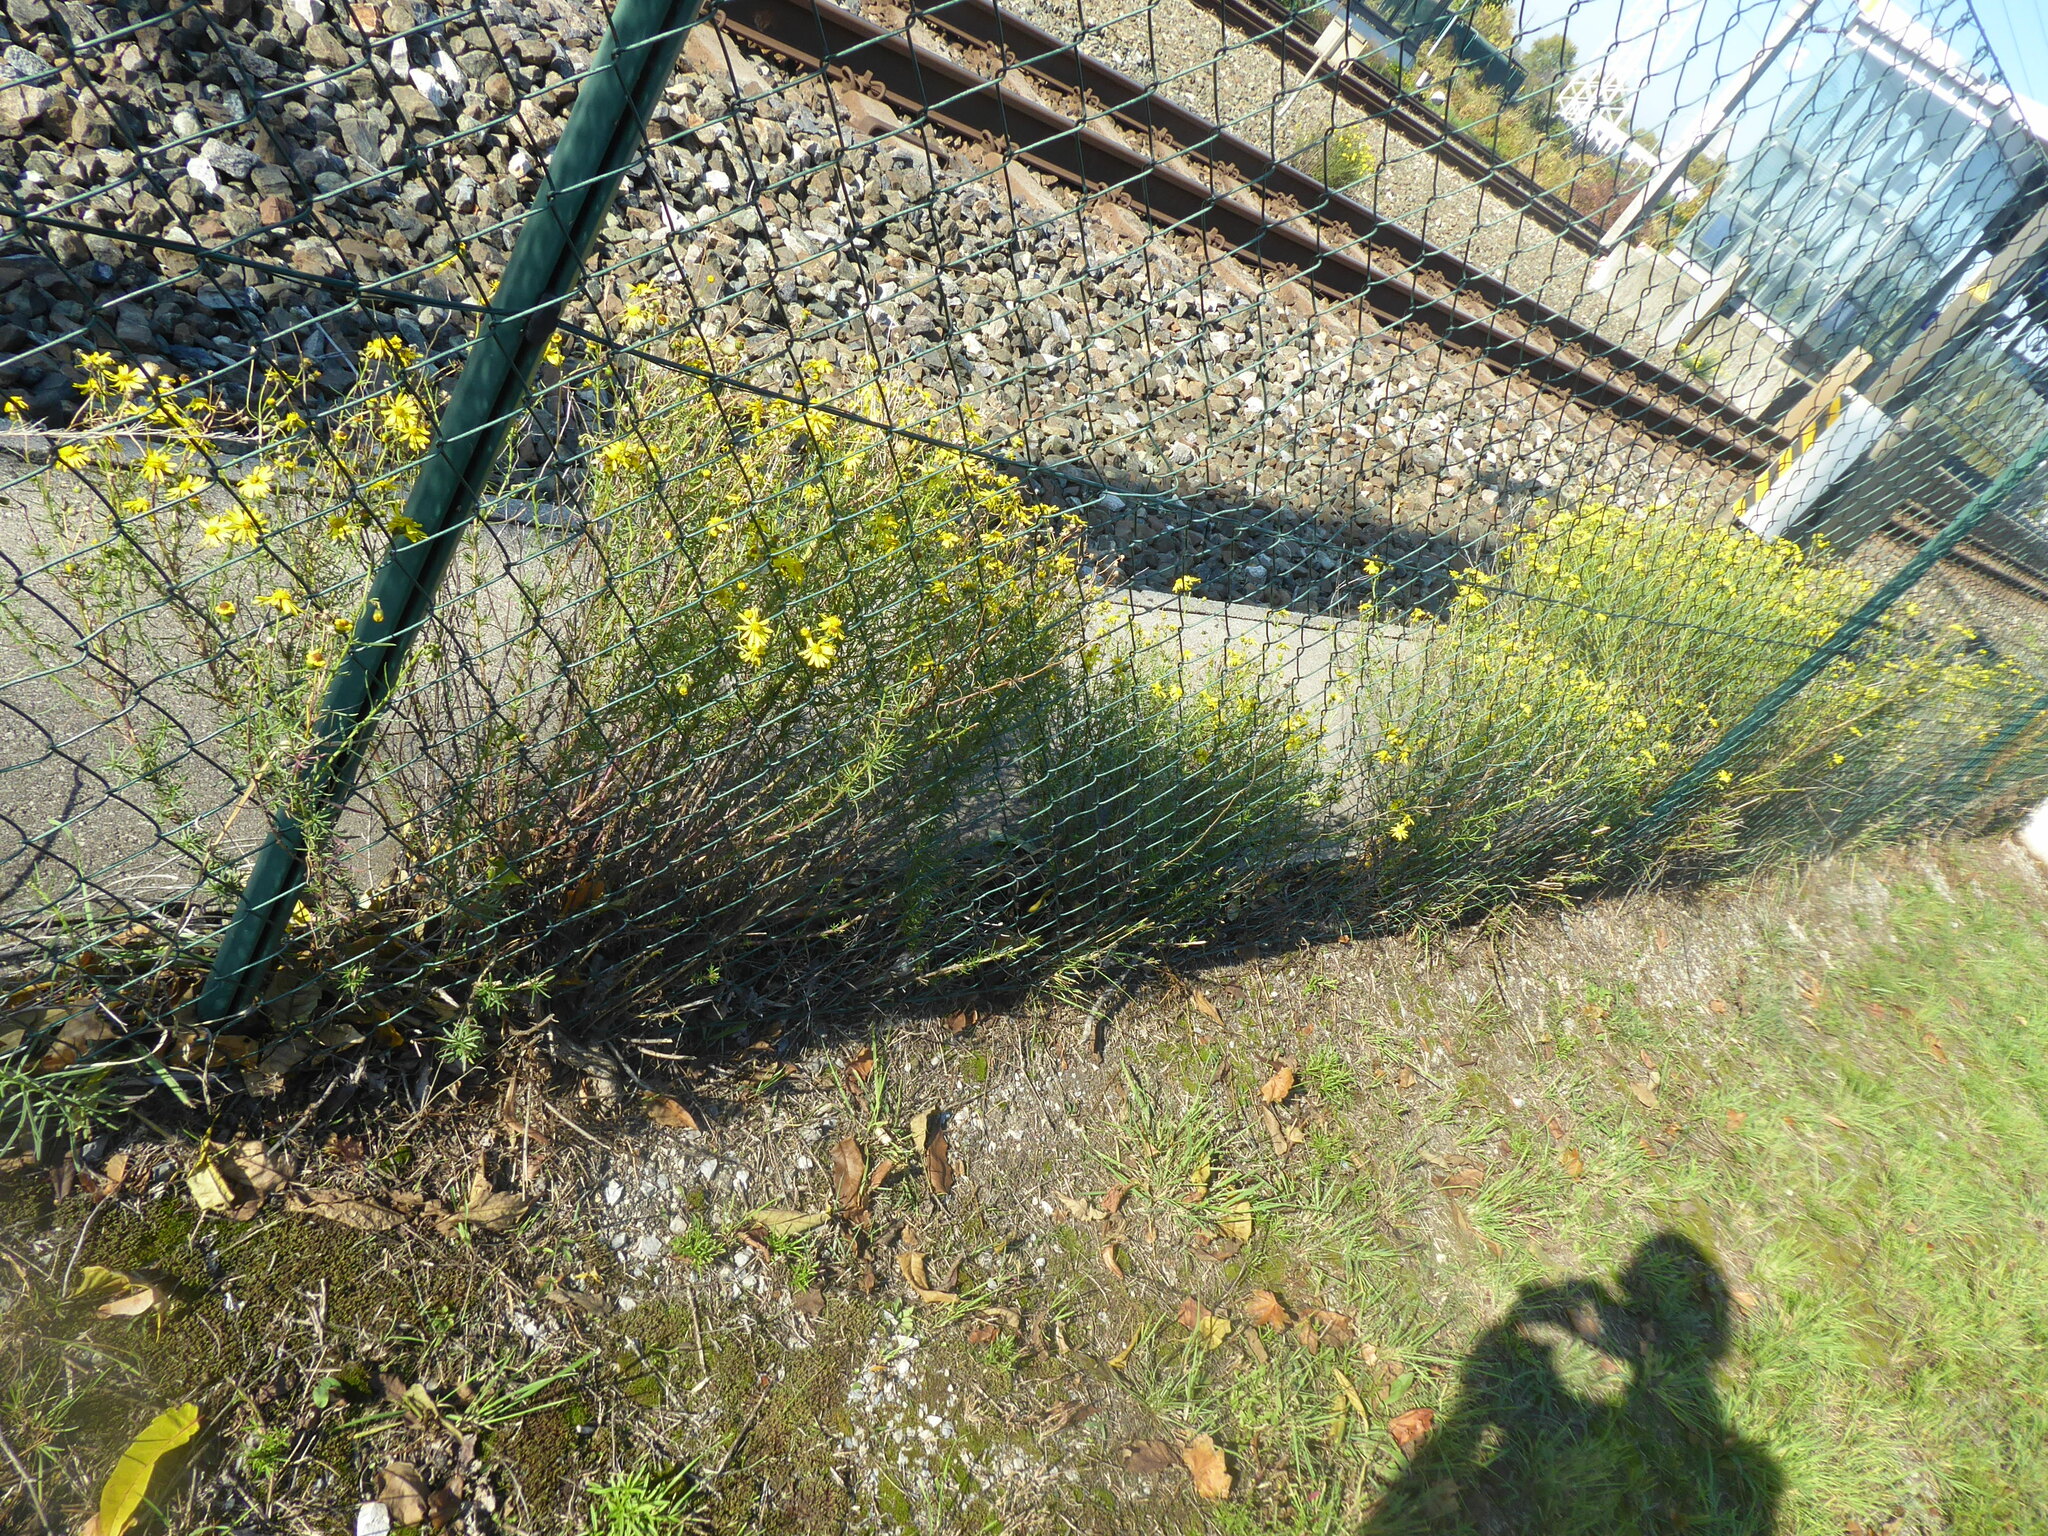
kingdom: Plantae
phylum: Tracheophyta
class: Magnoliopsida
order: Asterales
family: Asteraceae
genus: Senecio
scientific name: Senecio inaequidens
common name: Narrow-leaved ragwort
